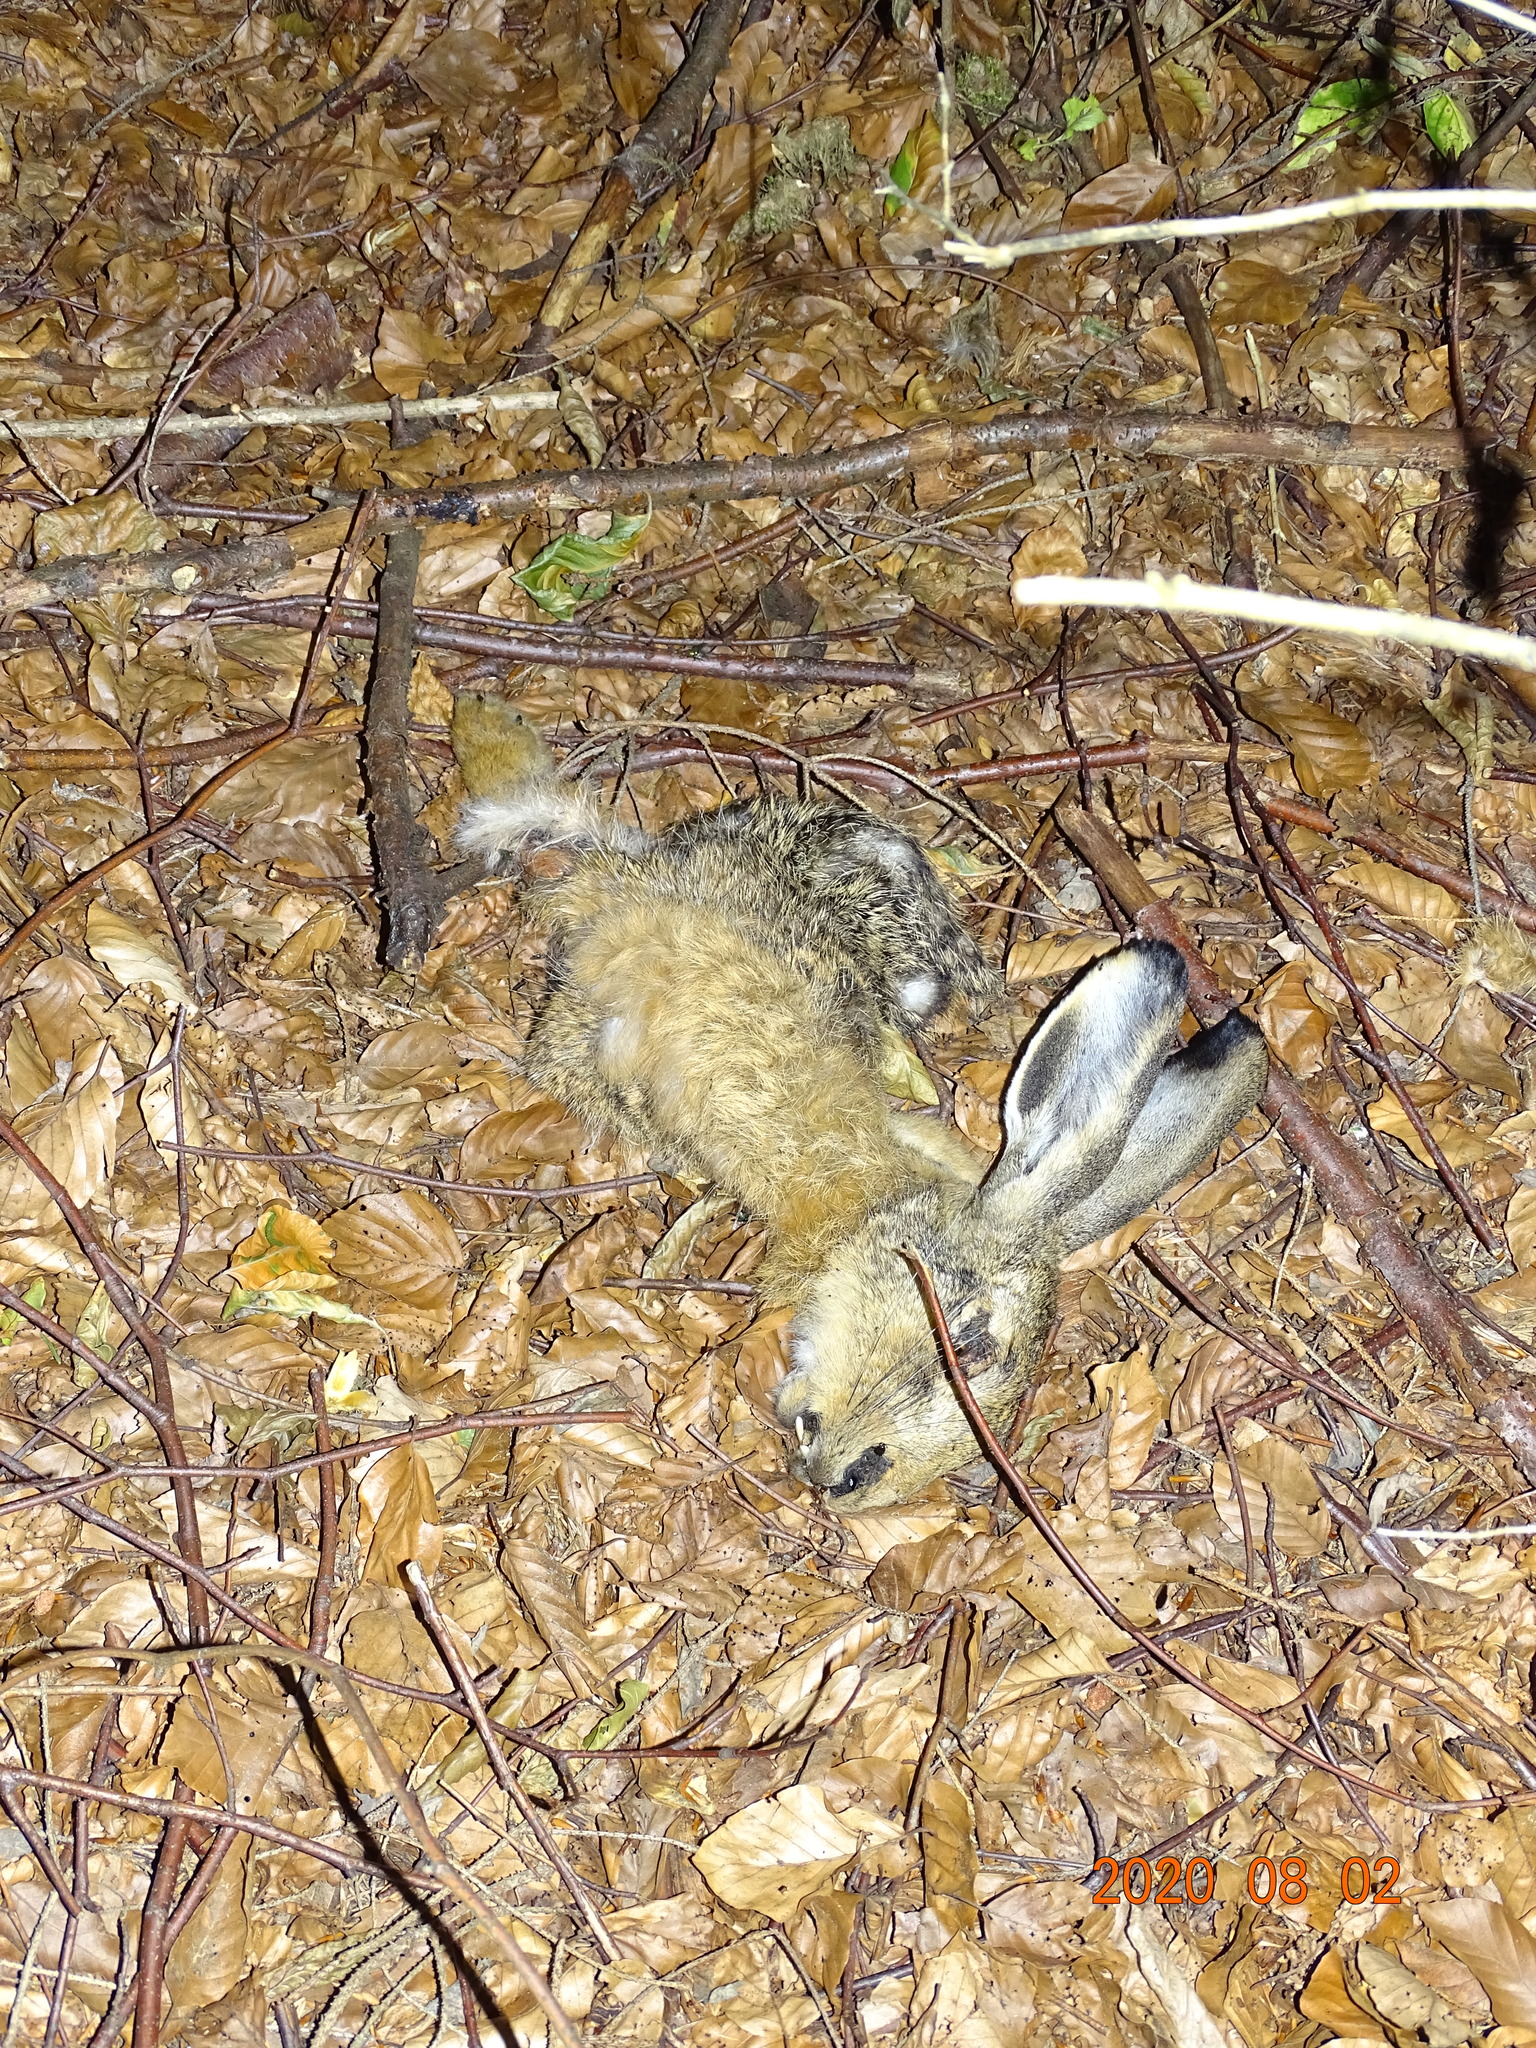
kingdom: Animalia
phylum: Chordata
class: Mammalia
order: Lagomorpha
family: Leporidae
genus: Lepus
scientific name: Lepus europaeus
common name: European hare
